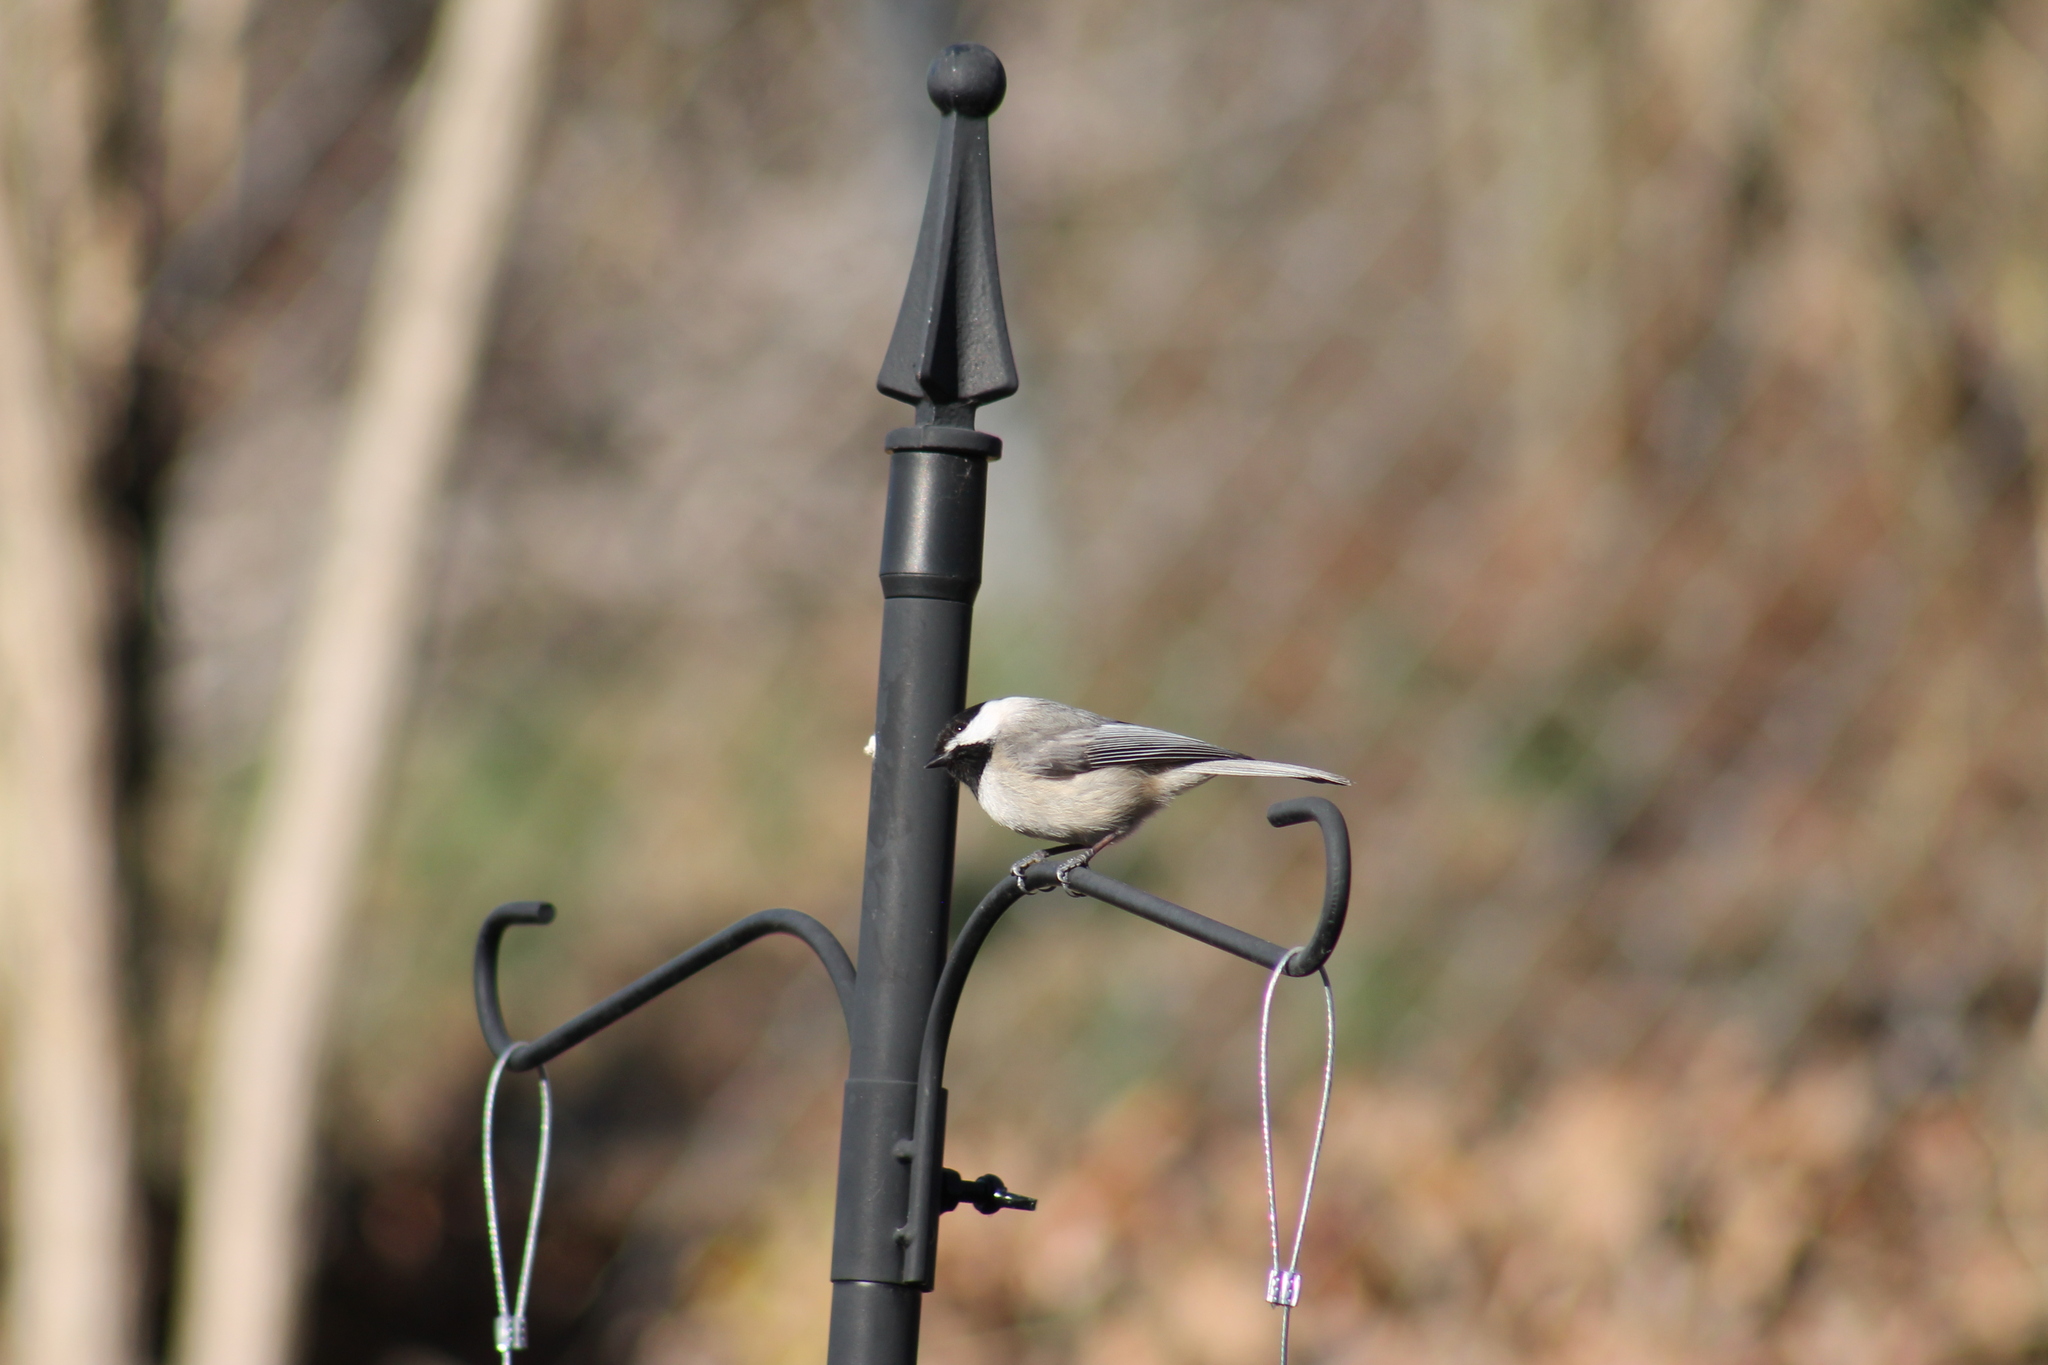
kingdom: Animalia
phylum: Chordata
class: Aves
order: Passeriformes
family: Paridae
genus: Poecile
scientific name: Poecile carolinensis
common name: Carolina chickadee
